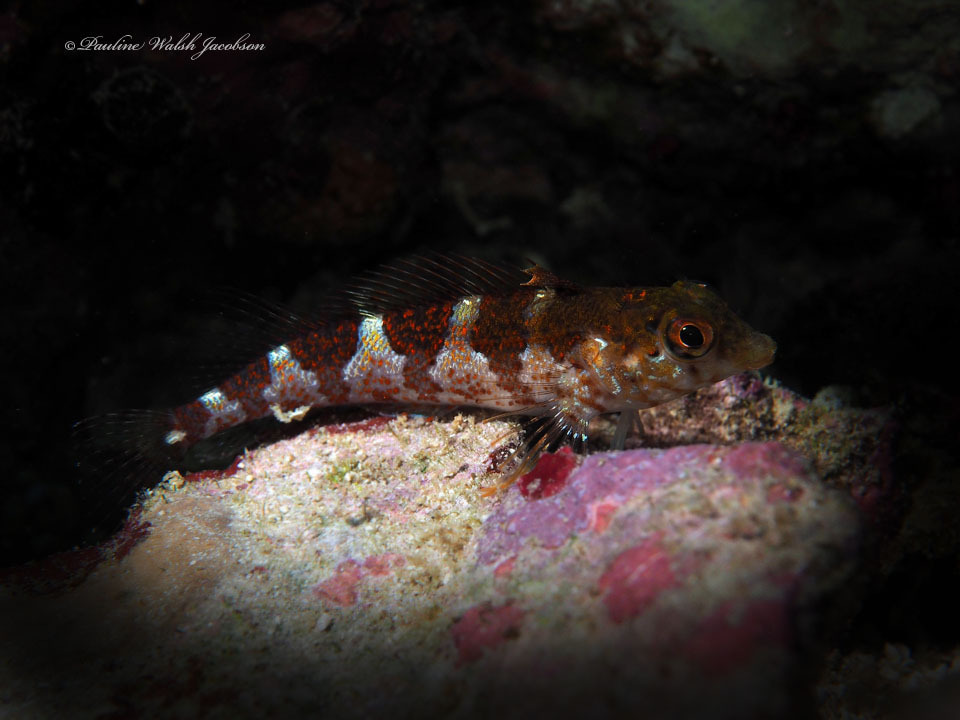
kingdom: Animalia
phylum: Chordata
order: Perciformes
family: Labrisomidae
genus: Malacoctenus
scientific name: Malacoctenus triangulatus
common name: Saddled blenny
